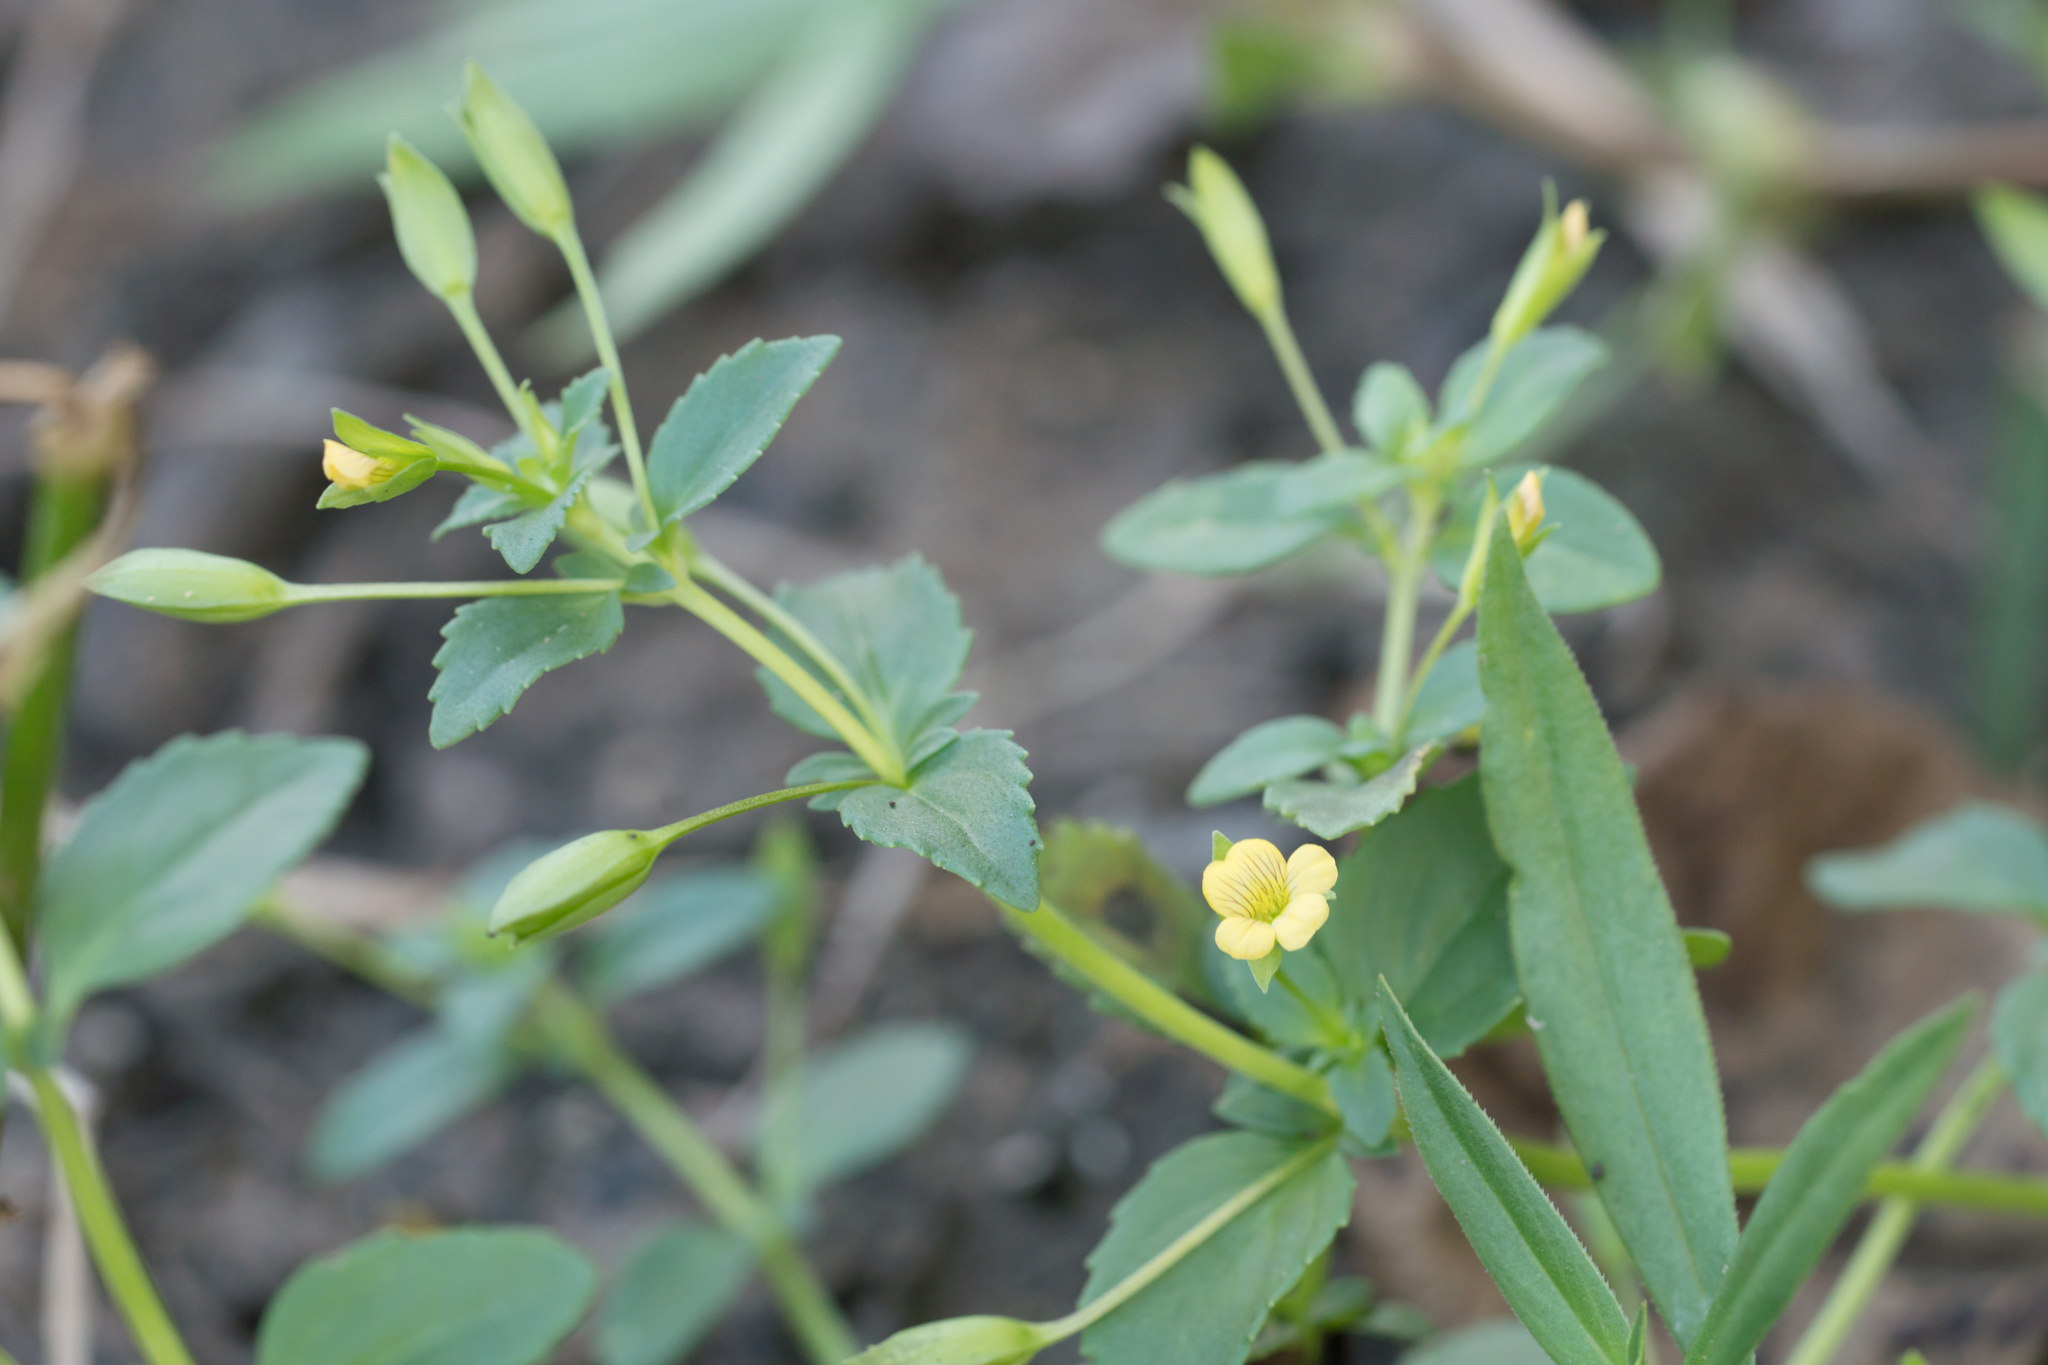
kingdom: Plantae
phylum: Tracheophyta
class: Magnoliopsida
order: Lamiales
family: Plantaginaceae
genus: Mecardonia
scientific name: Mecardonia procumbens
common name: Baby jump-up
